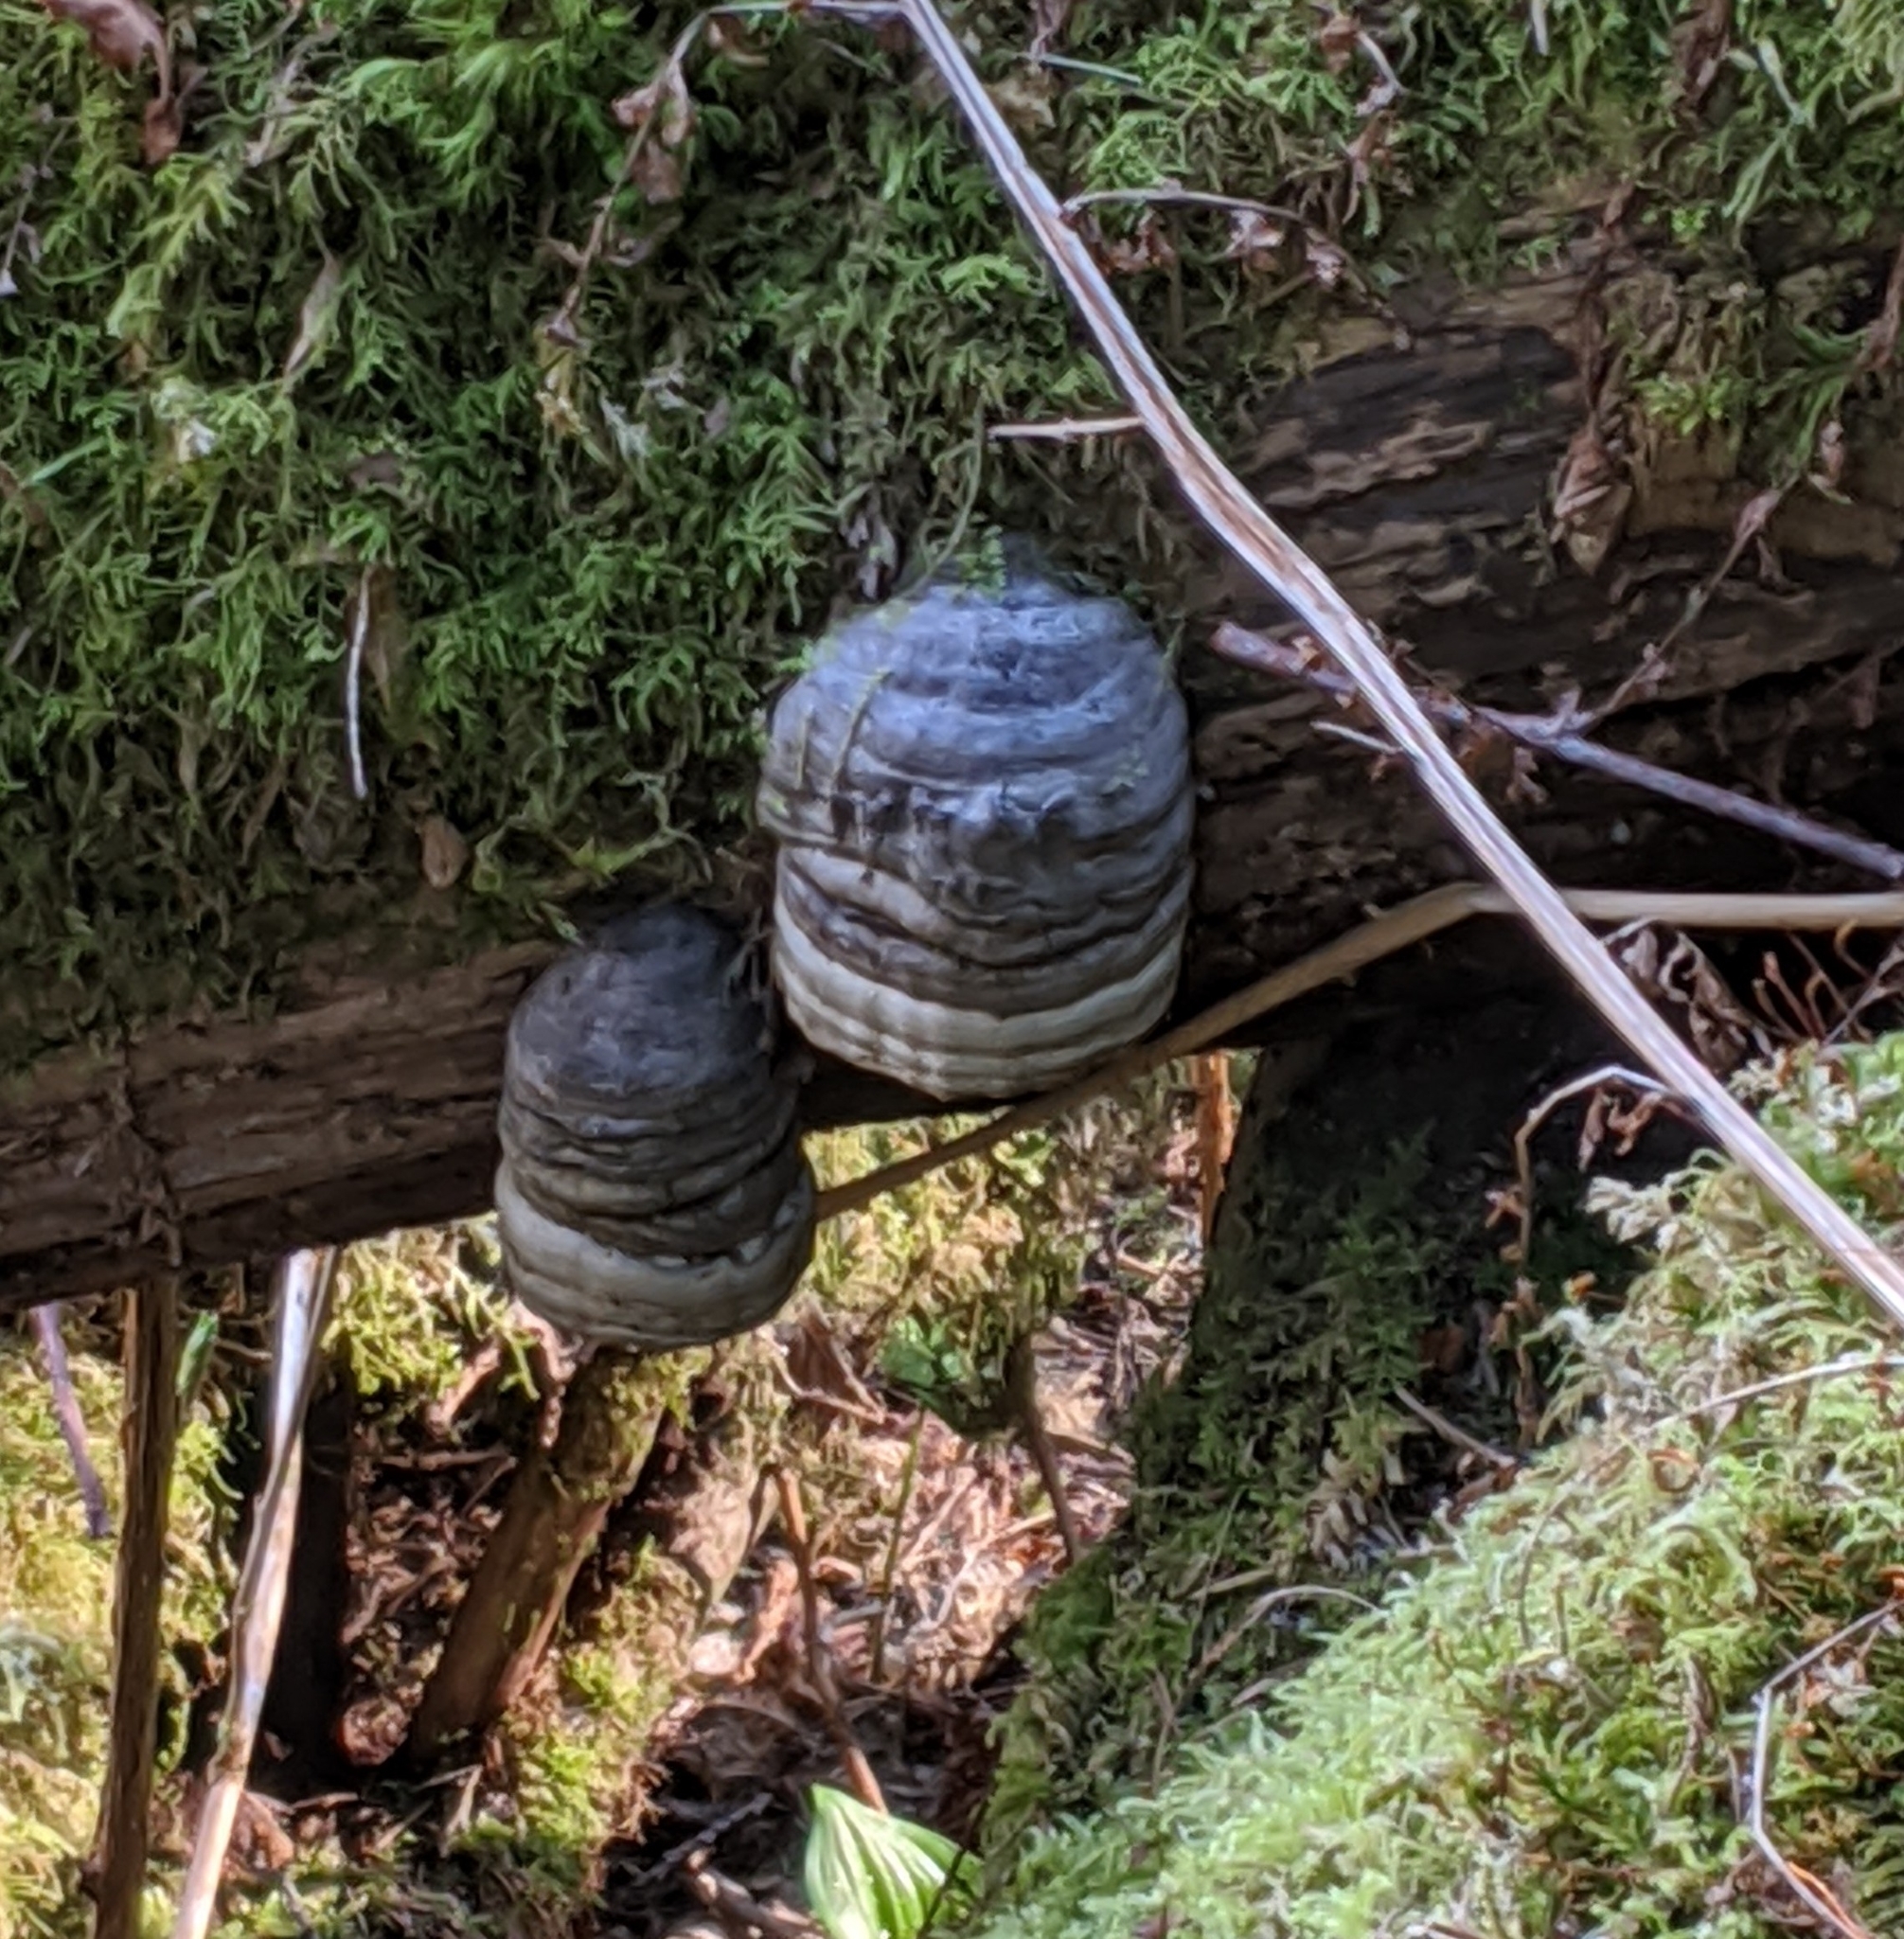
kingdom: Fungi
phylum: Basidiomycota
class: Agaricomycetes
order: Polyporales
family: Polyporaceae
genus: Fomes
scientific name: Fomes fomentarius
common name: Hoof fungus
